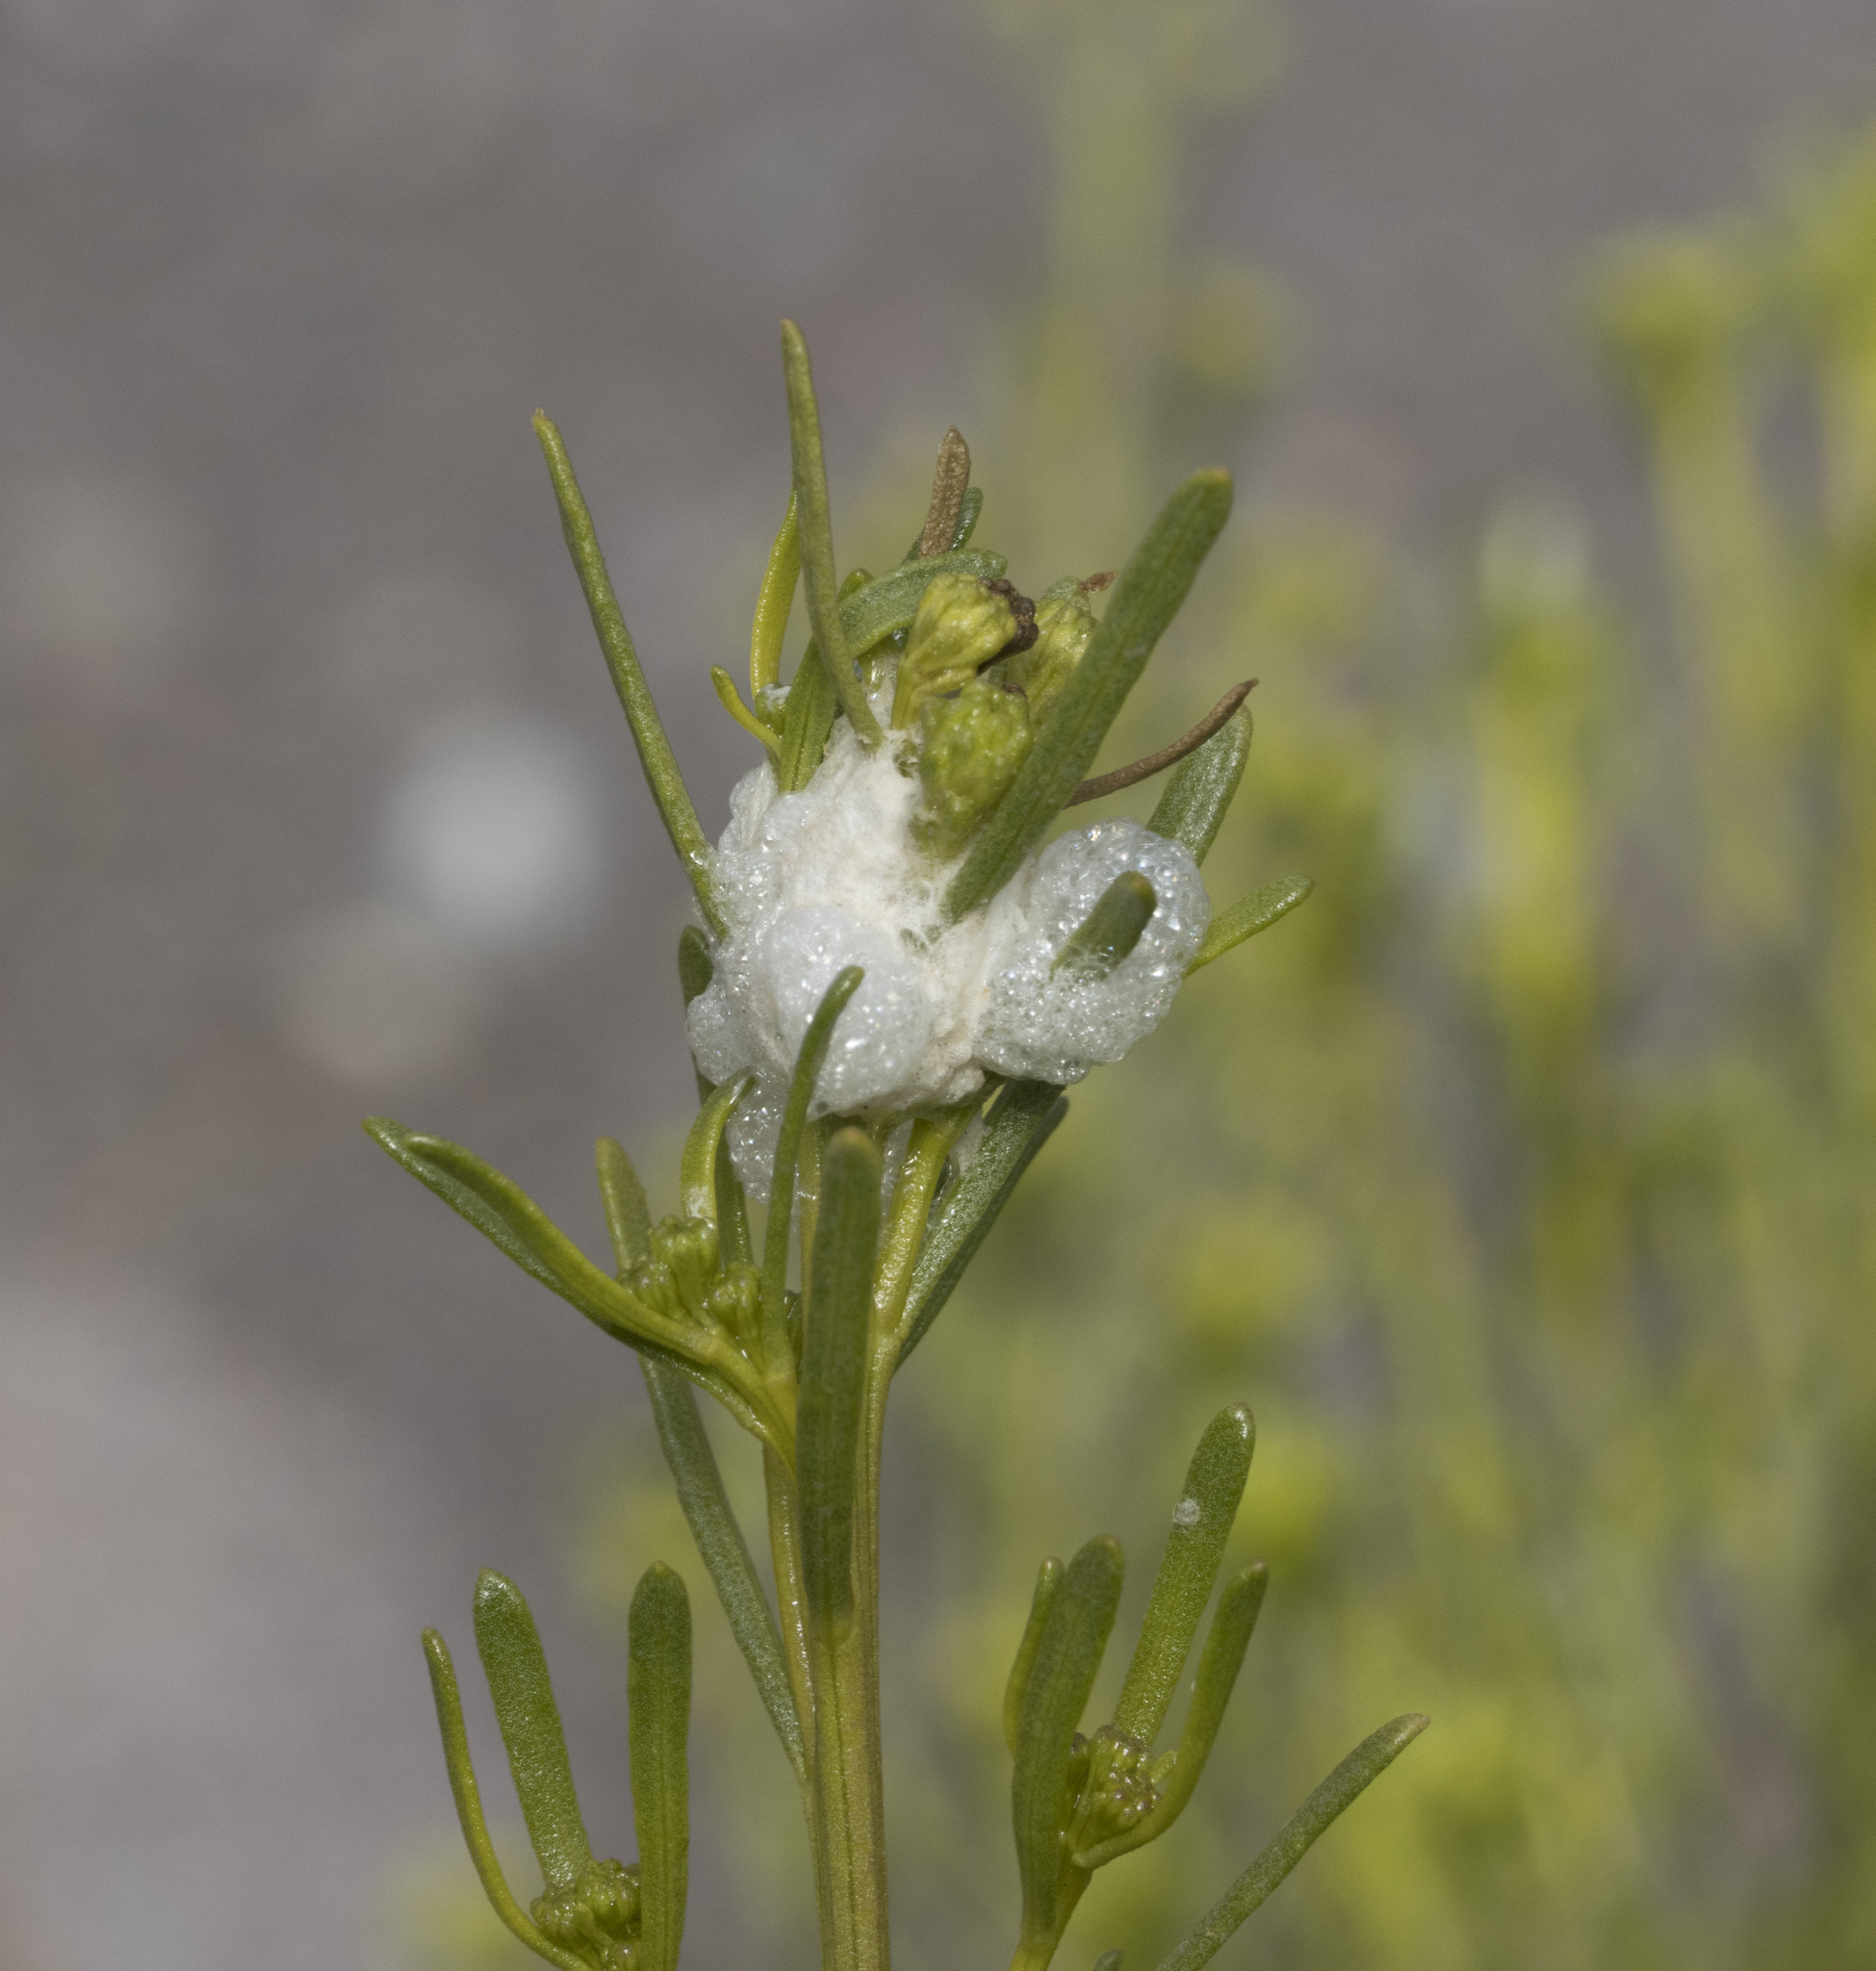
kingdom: Animalia
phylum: Arthropoda
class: Insecta
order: Diptera
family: Tephritidae
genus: Rachiptera
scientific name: Rachiptera limbata
